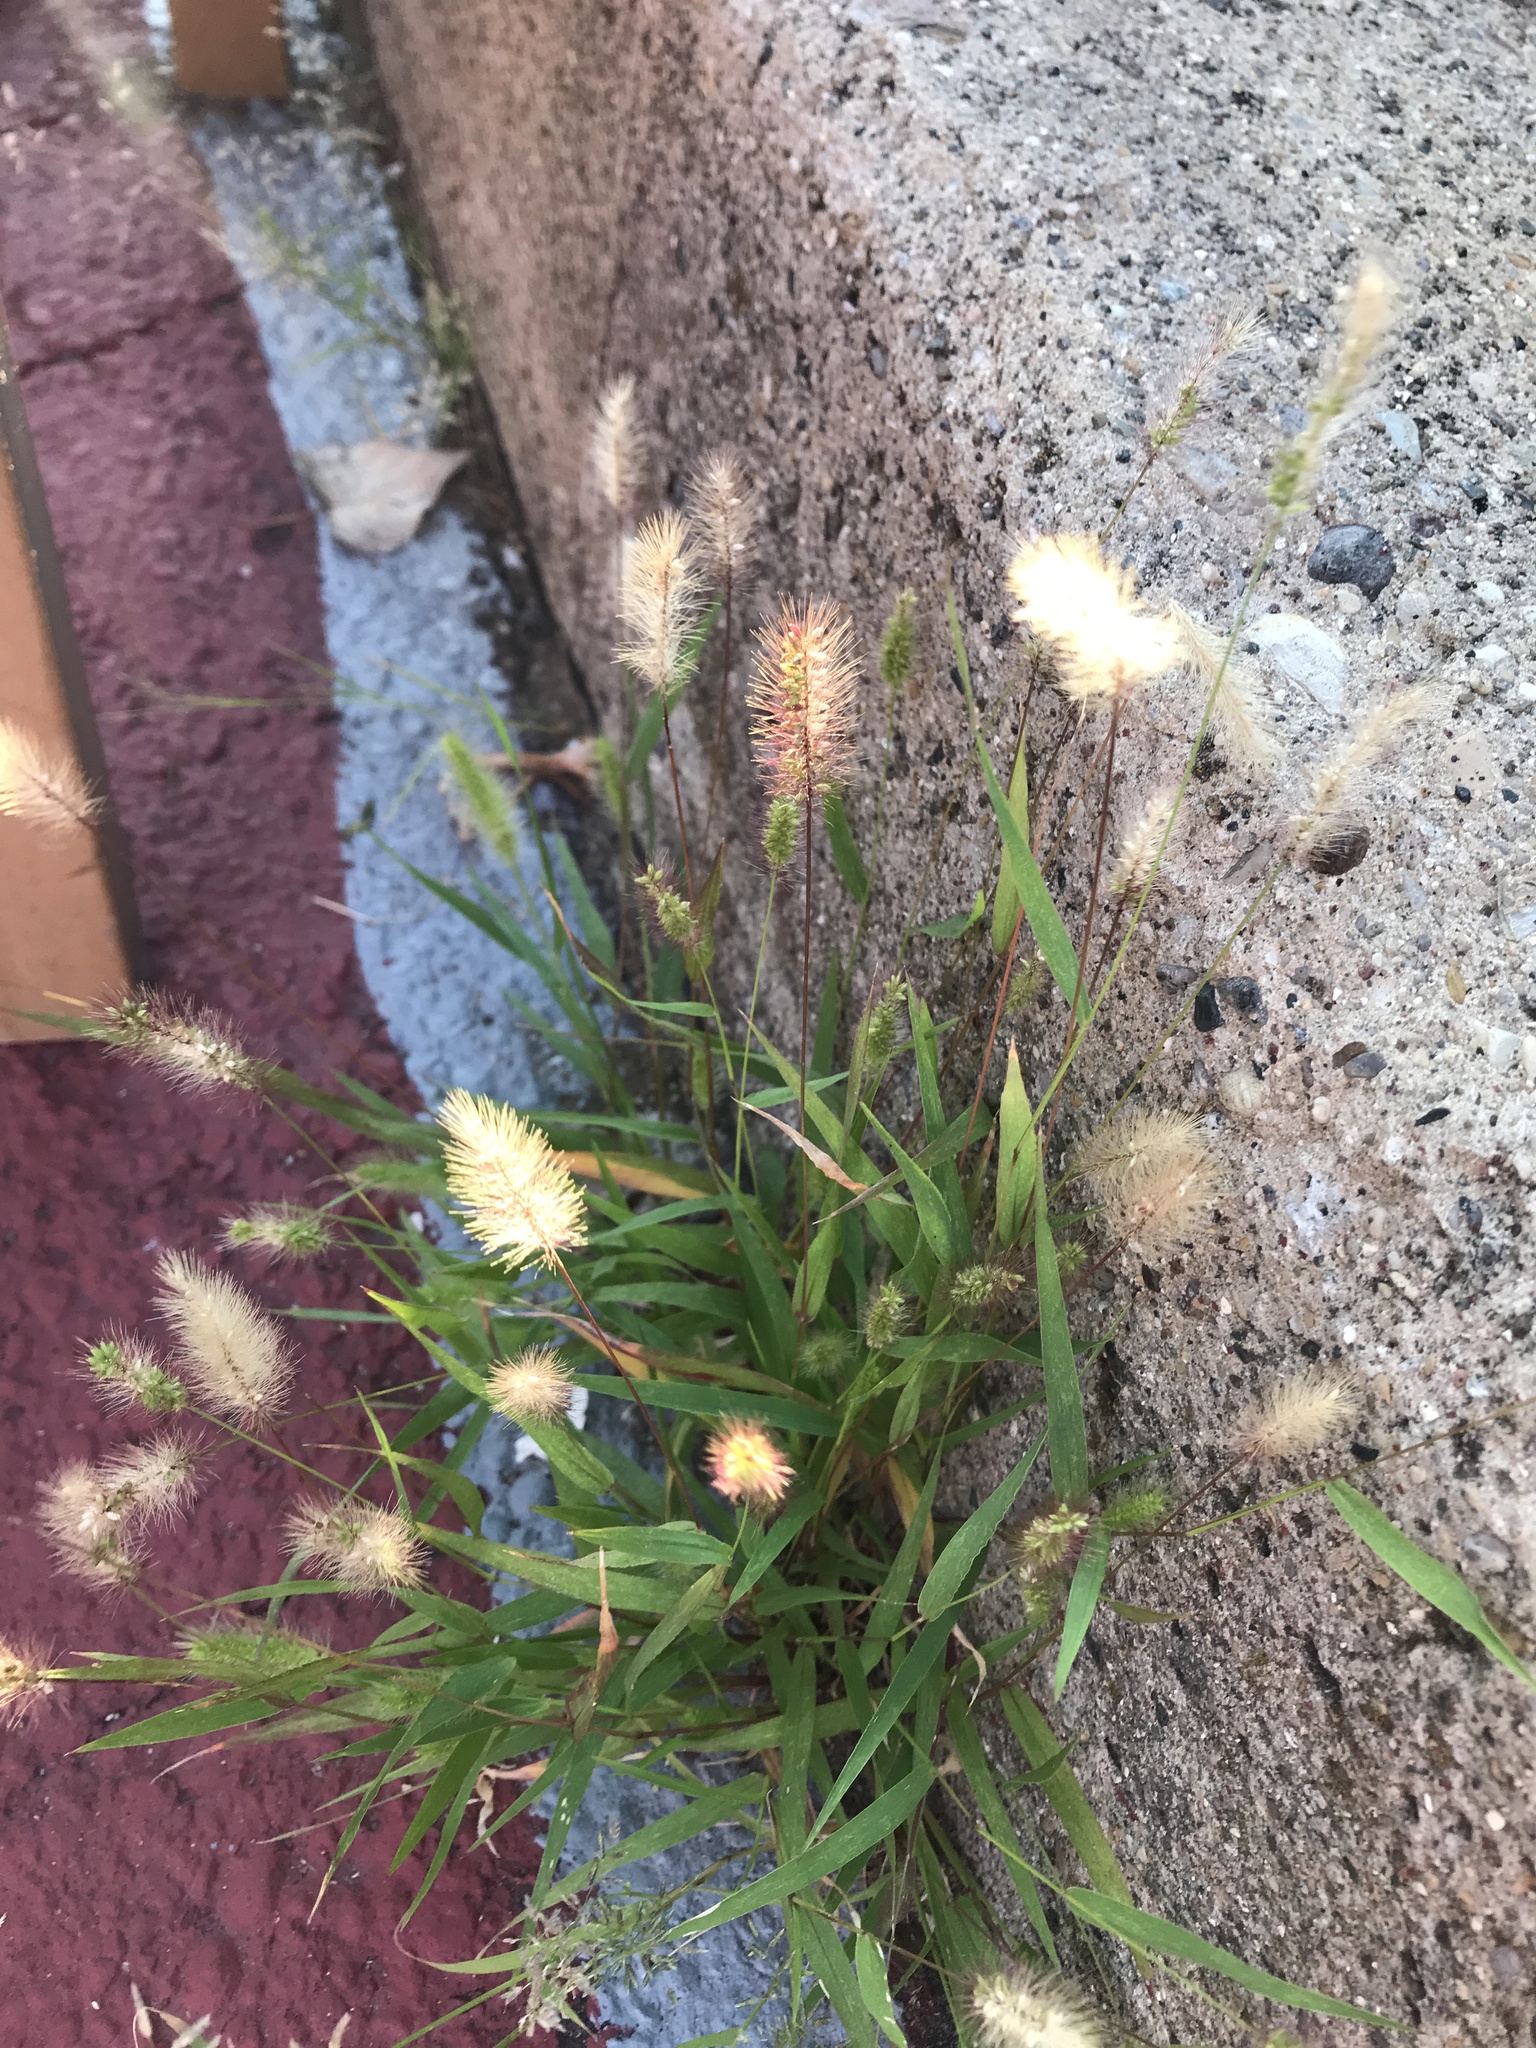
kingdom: Plantae
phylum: Tracheophyta
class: Liliopsida
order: Poales
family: Poaceae
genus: Setaria
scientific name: Setaria viridis
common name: Green bristlegrass
